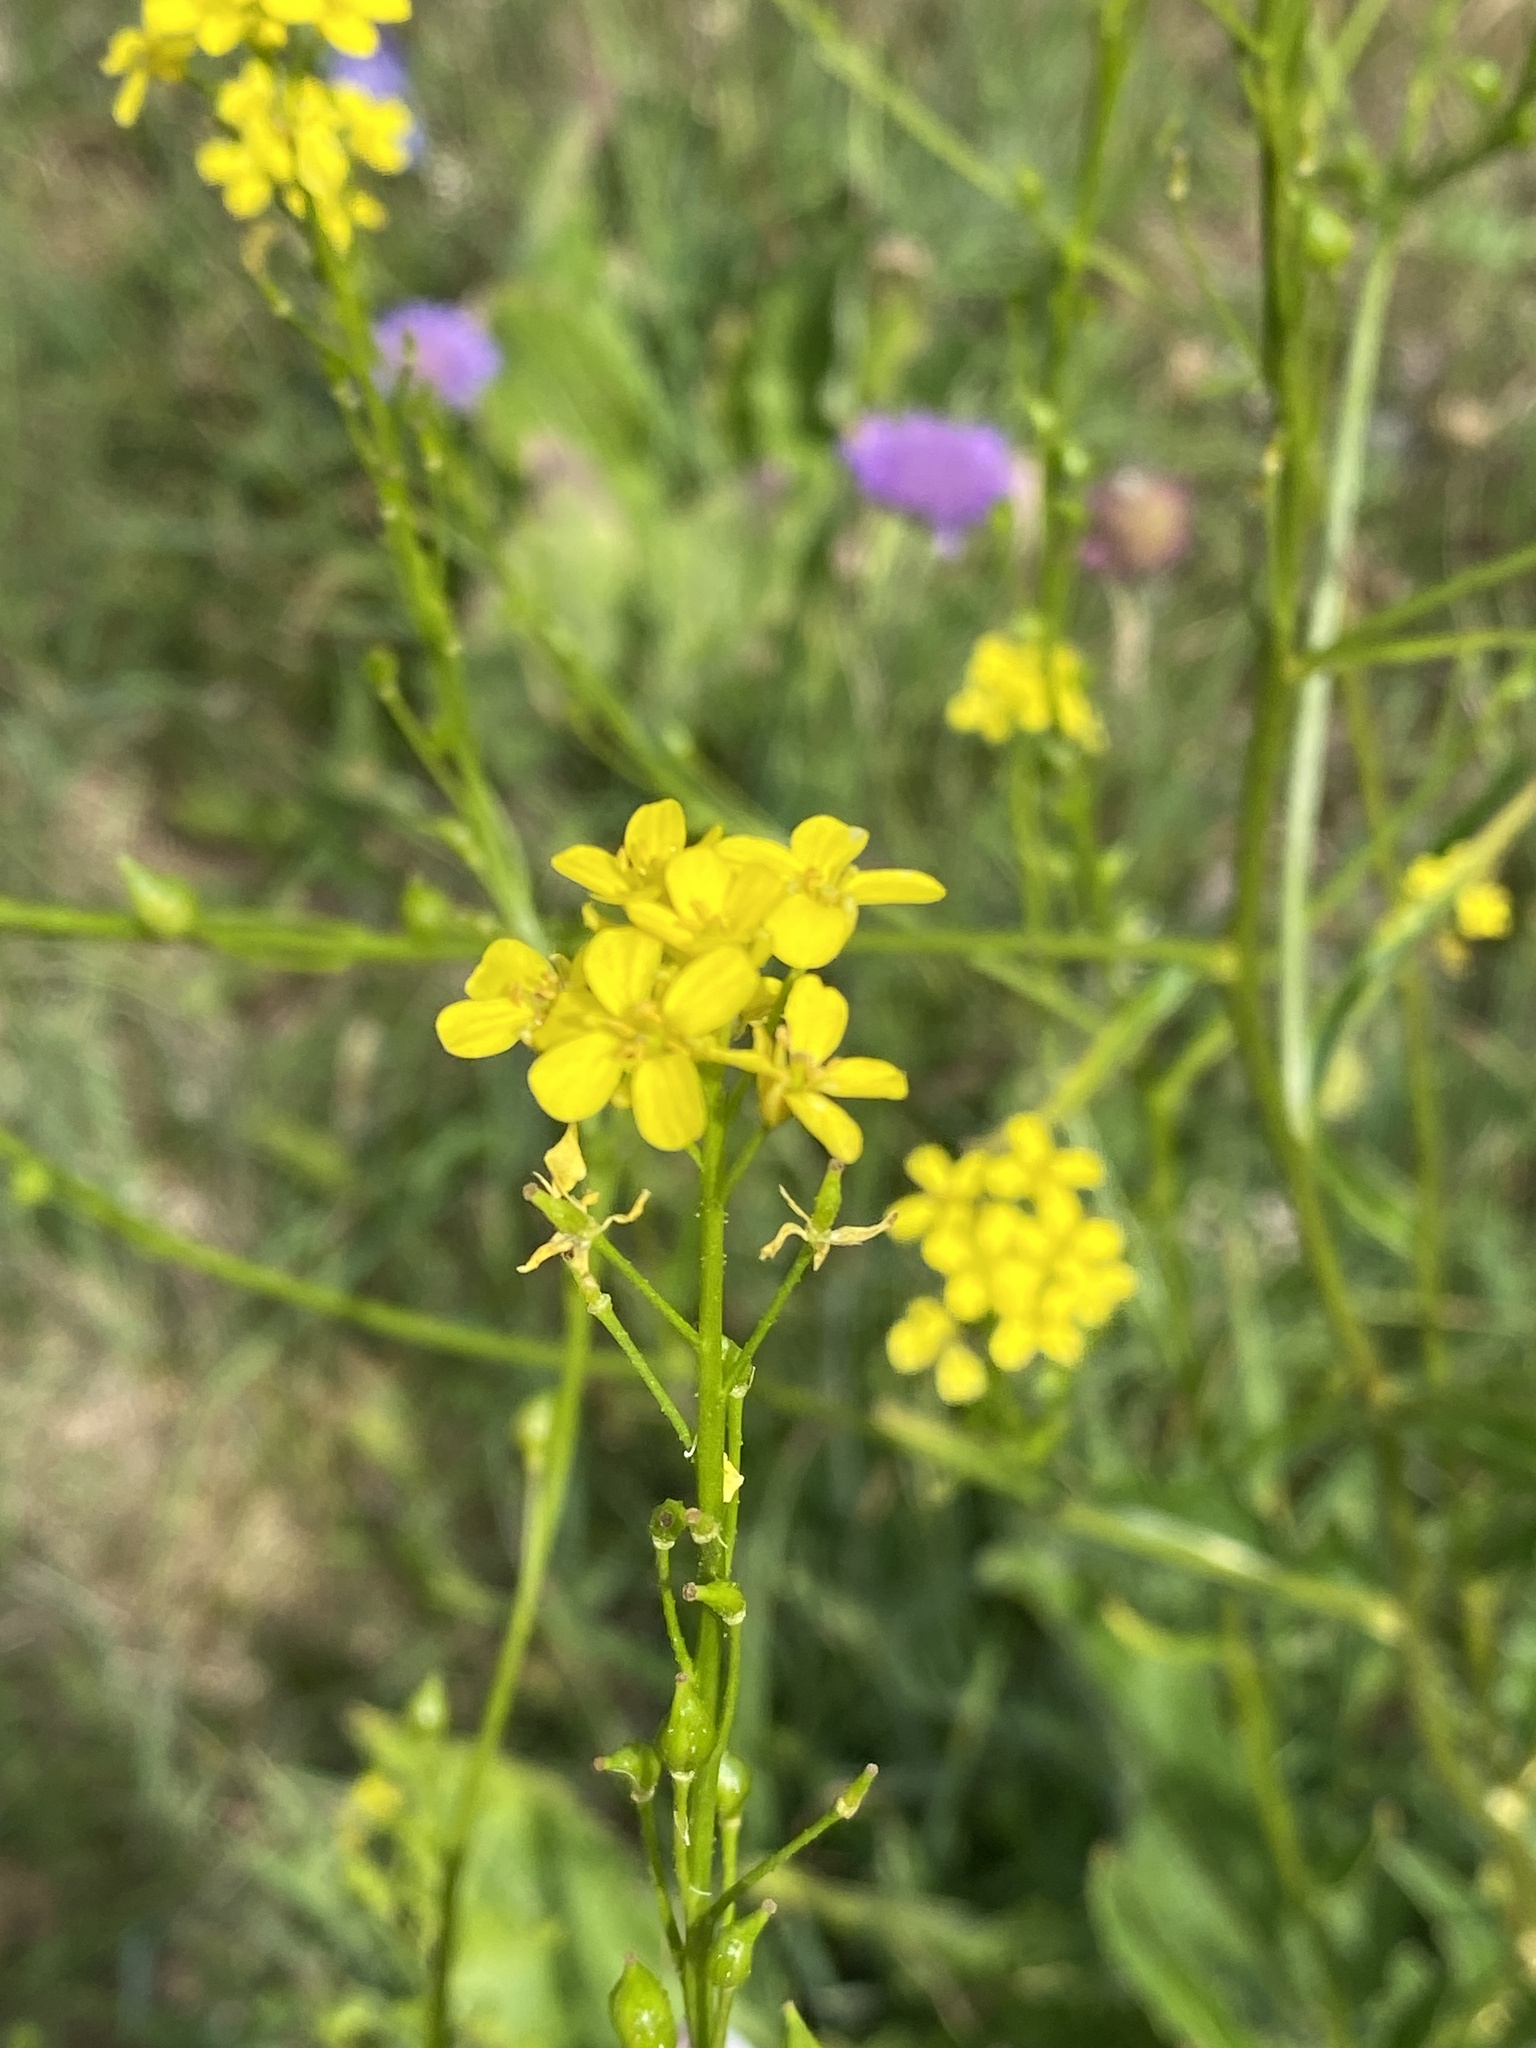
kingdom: Plantae
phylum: Tracheophyta
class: Magnoliopsida
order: Brassicales
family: Brassicaceae
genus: Bunias
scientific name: Bunias orientalis
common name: Warty-cabbage
